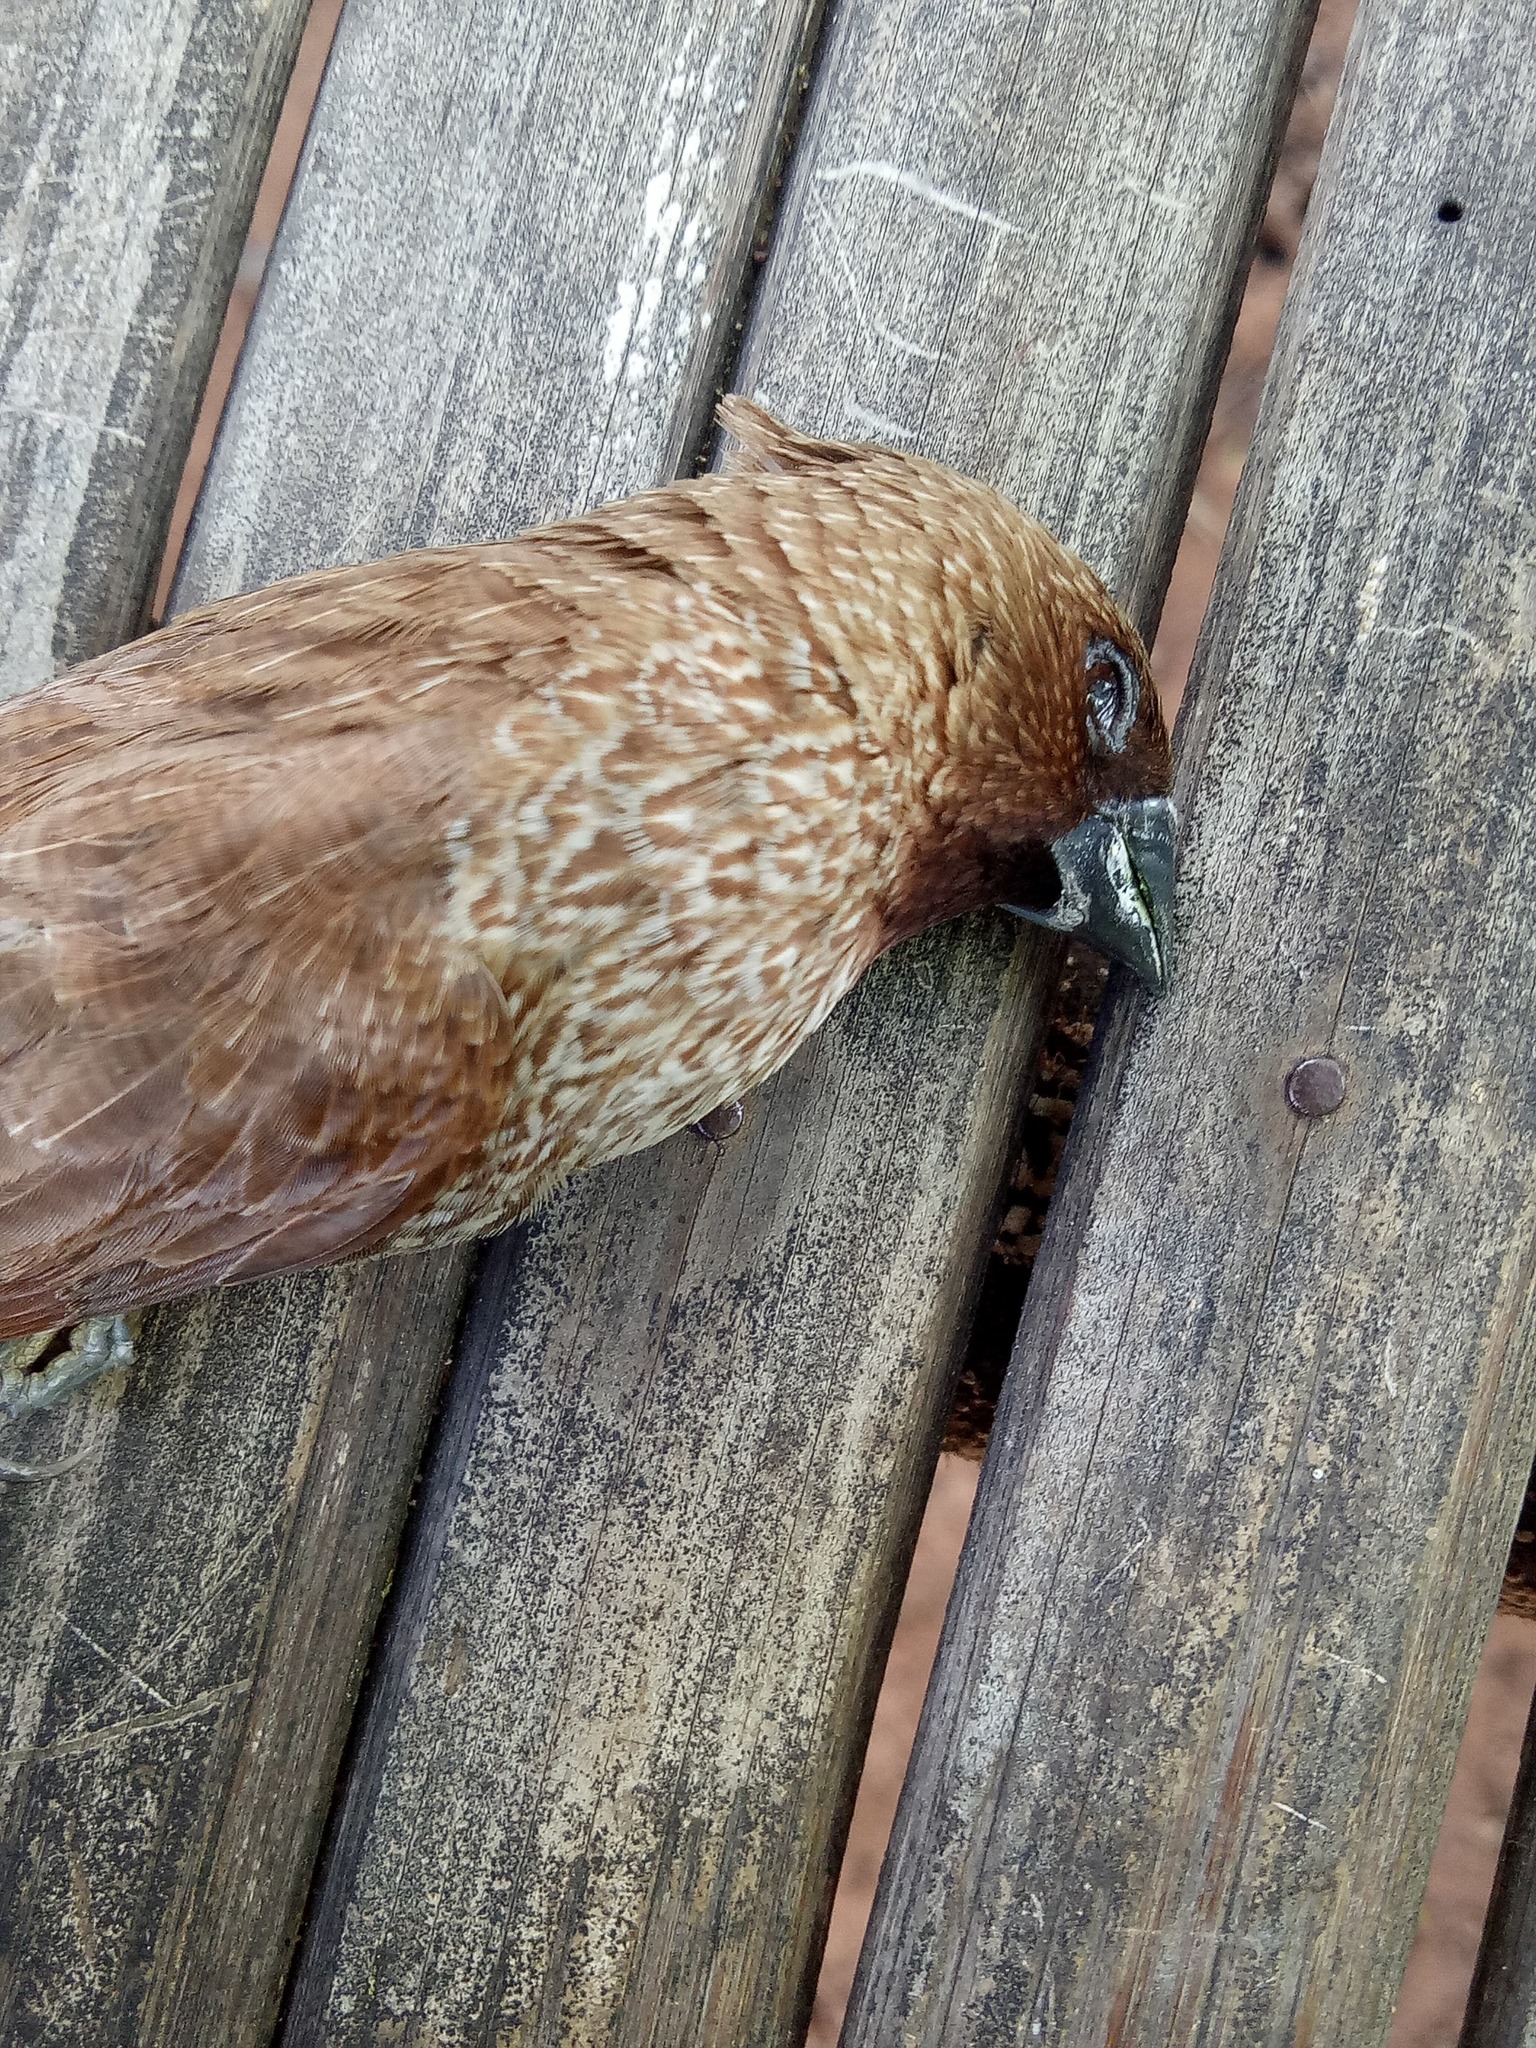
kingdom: Animalia
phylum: Chordata
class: Aves
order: Passeriformes
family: Estrildidae
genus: Lonchura
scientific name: Lonchura punctulata
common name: Scaly-breasted munia
